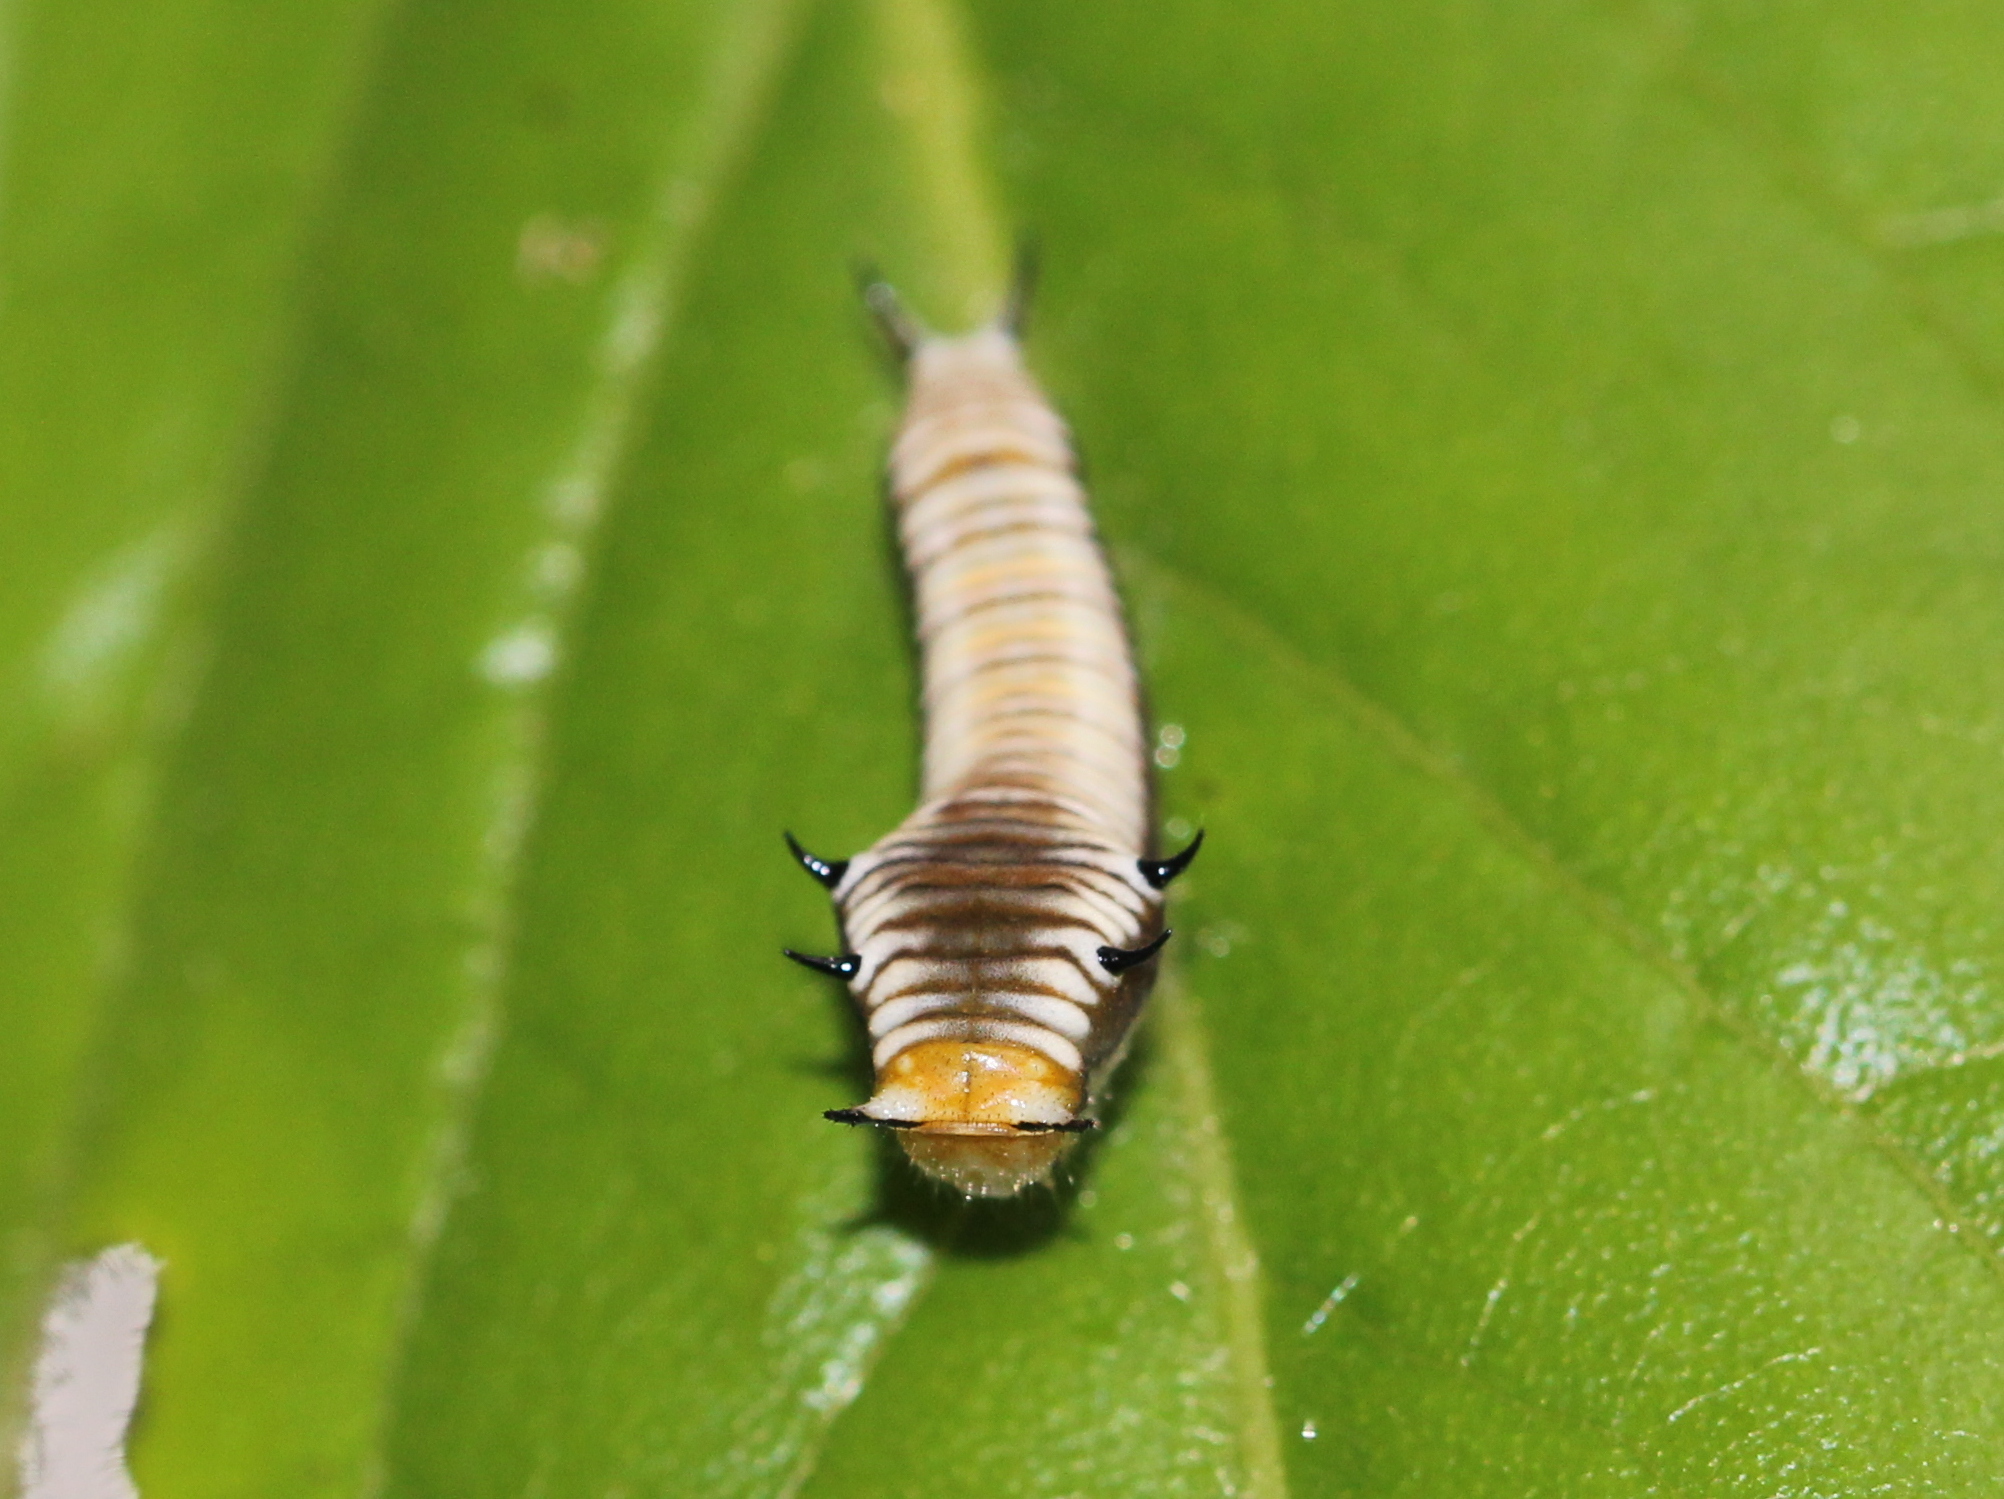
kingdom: Animalia
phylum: Arthropoda
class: Insecta
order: Lepidoptera
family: Papilionidae
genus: Graphium
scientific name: Graphium nomius
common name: Spot swordtail
